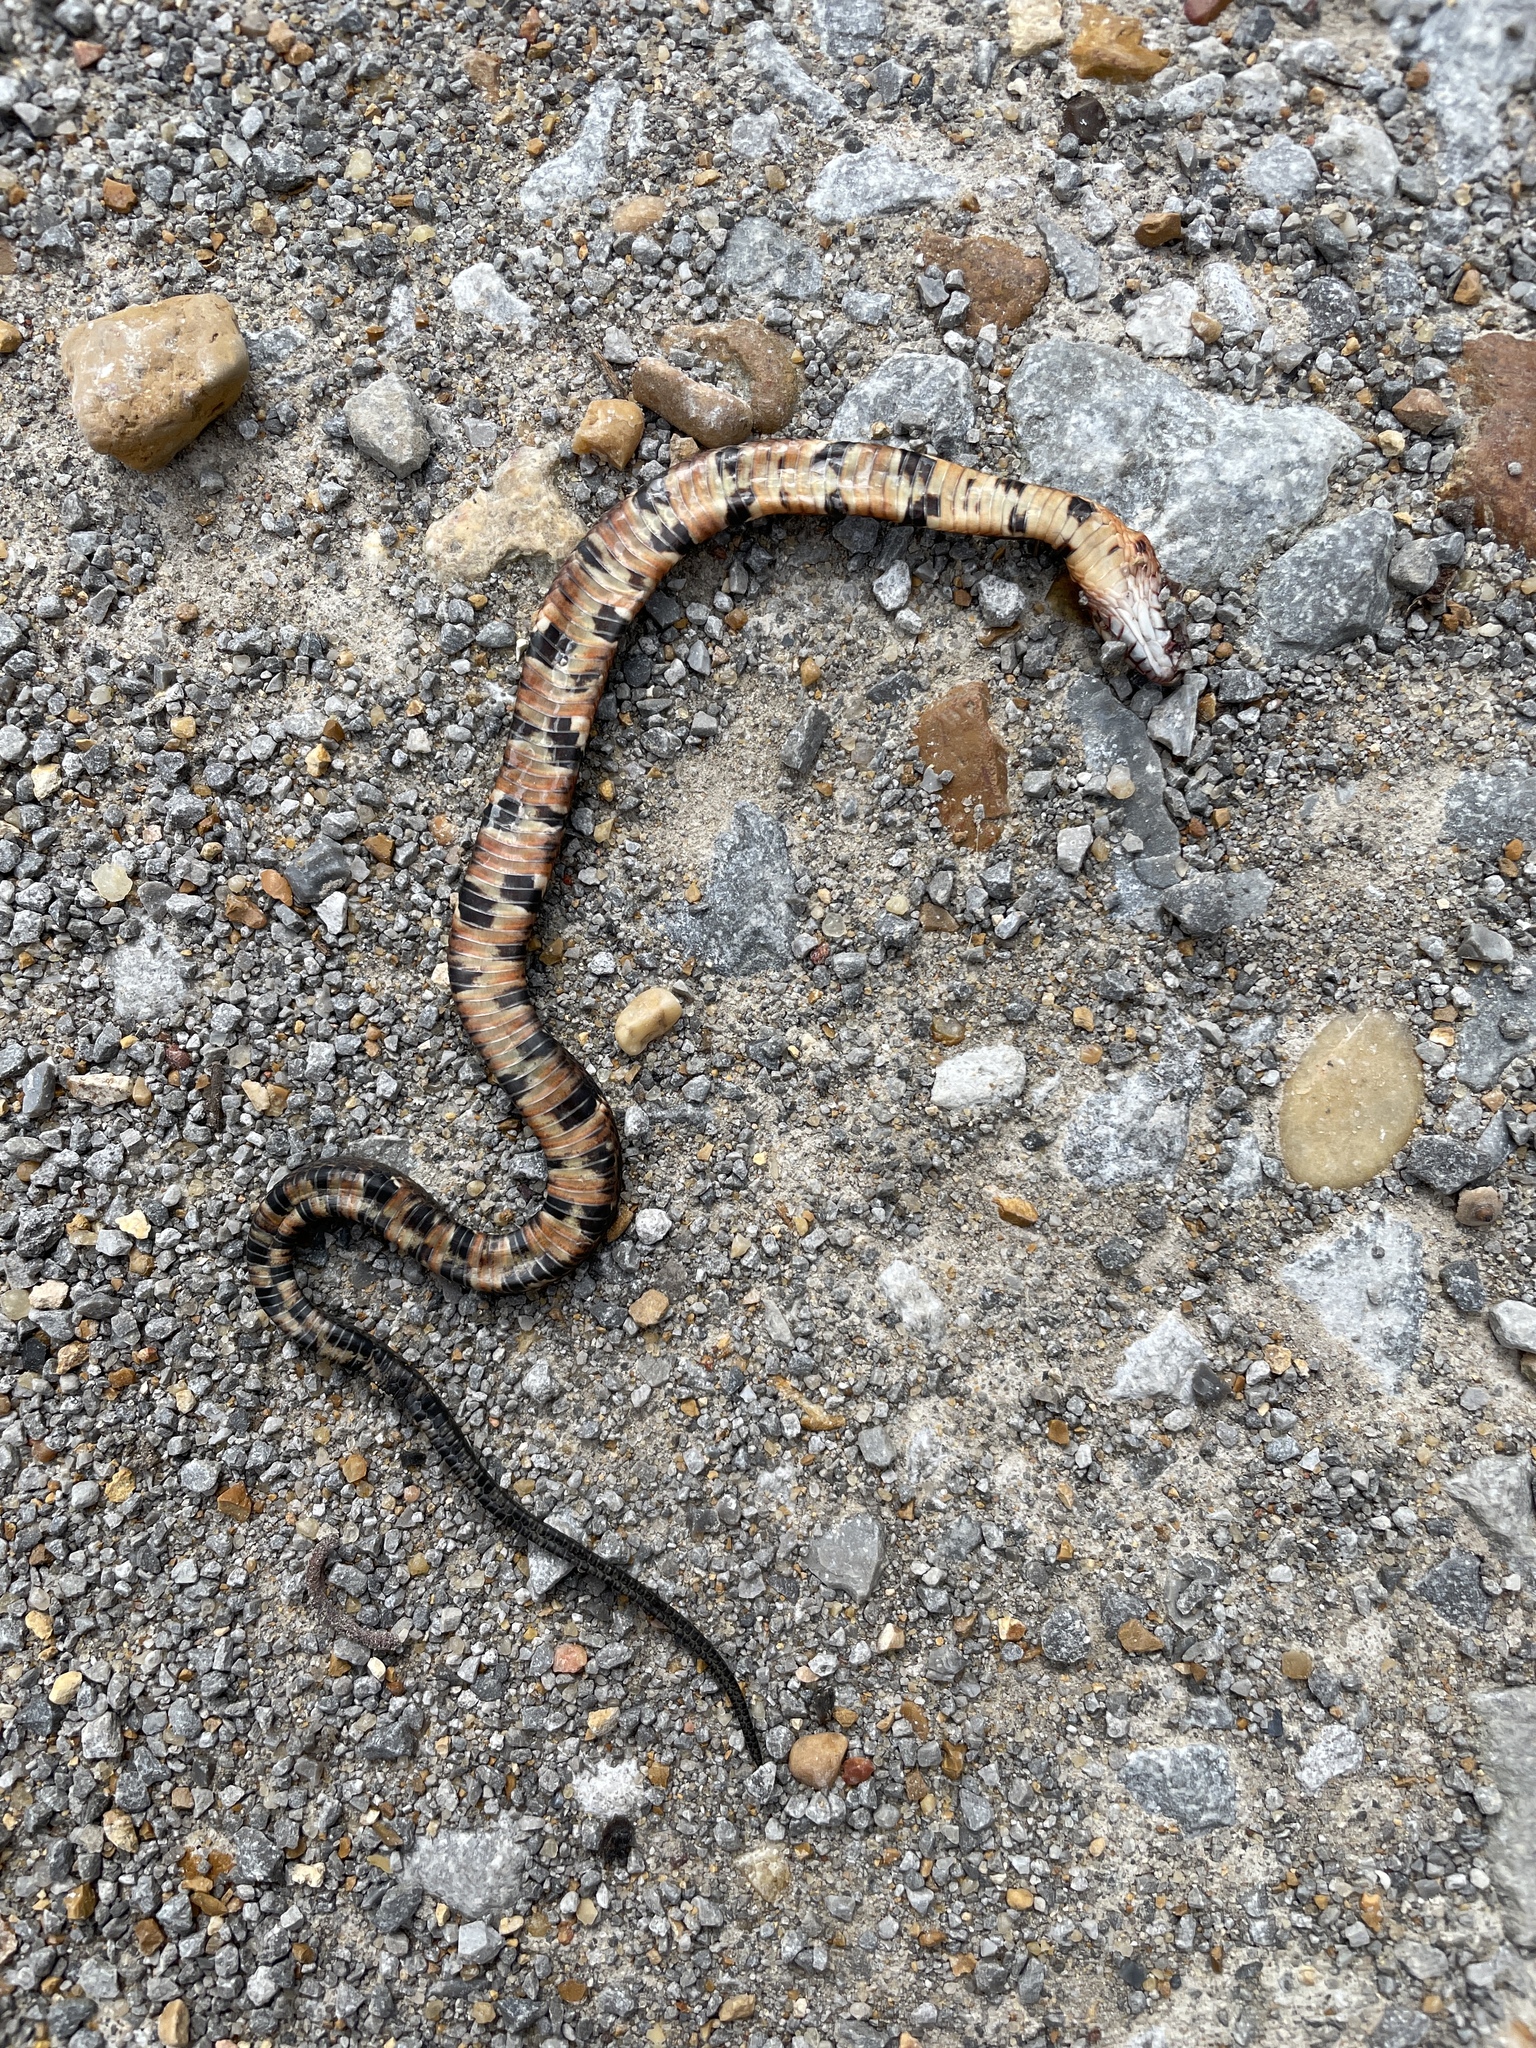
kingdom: Animalia
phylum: Chordata
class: Squamata
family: Colubridae
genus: Nerodia
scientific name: Nerodia fasciata
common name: Southern water snake
